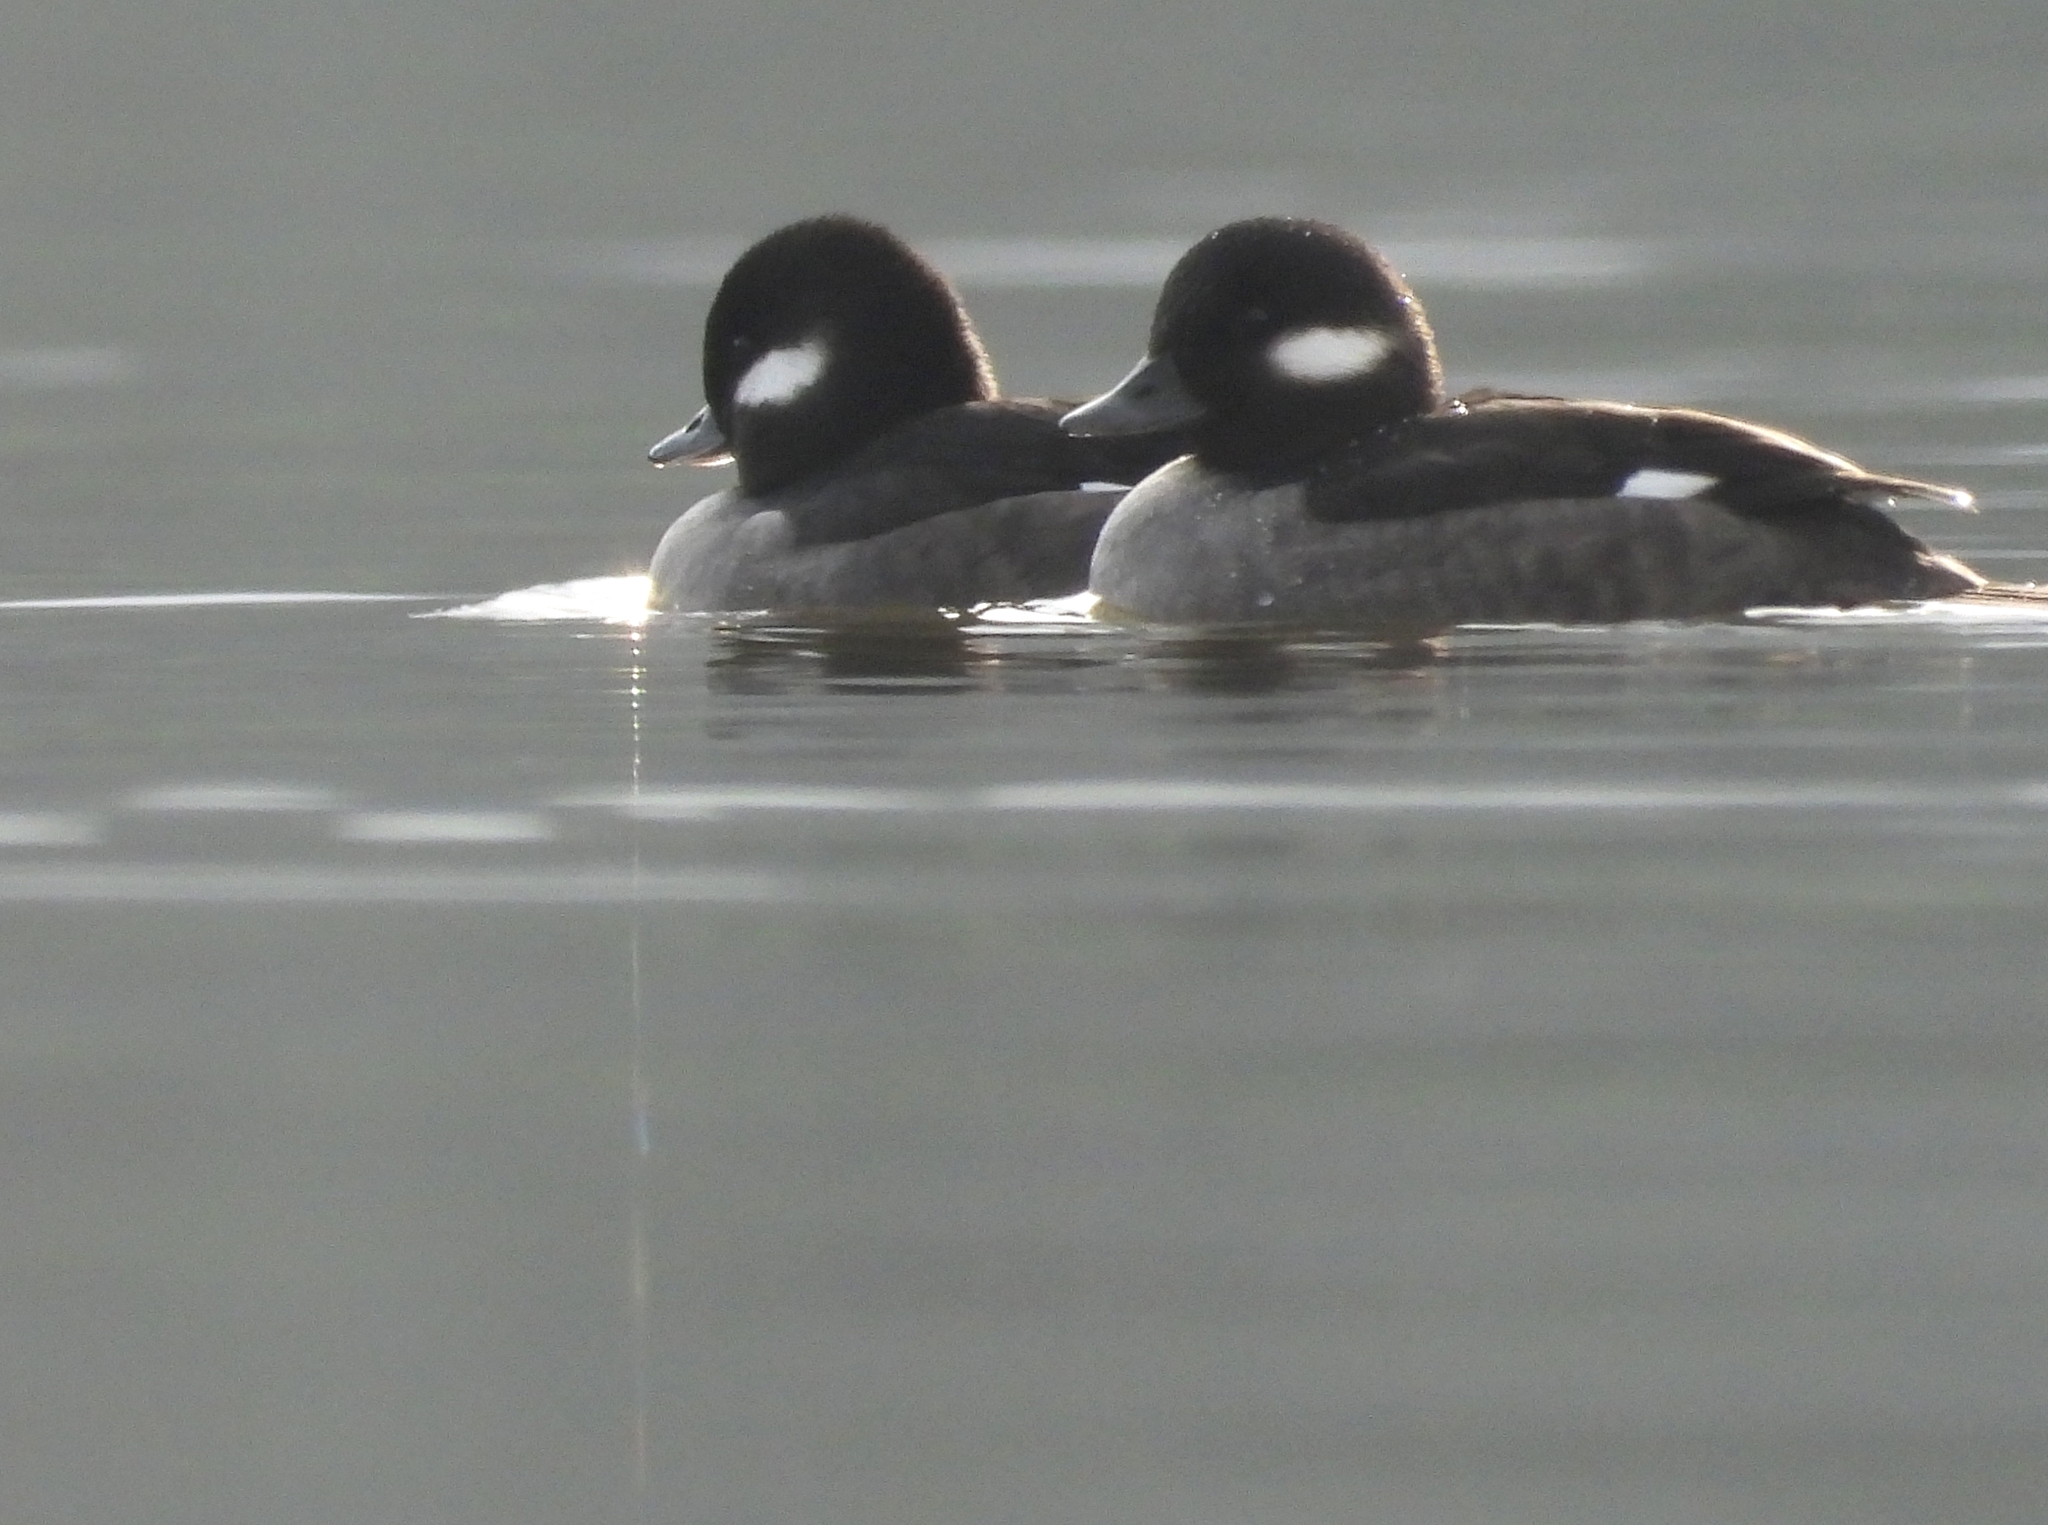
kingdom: Animalia
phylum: Chordata
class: Aves
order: Anseriformes
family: Anatidae
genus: Bucephala
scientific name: Bucephala albeola
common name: Bufflehead
